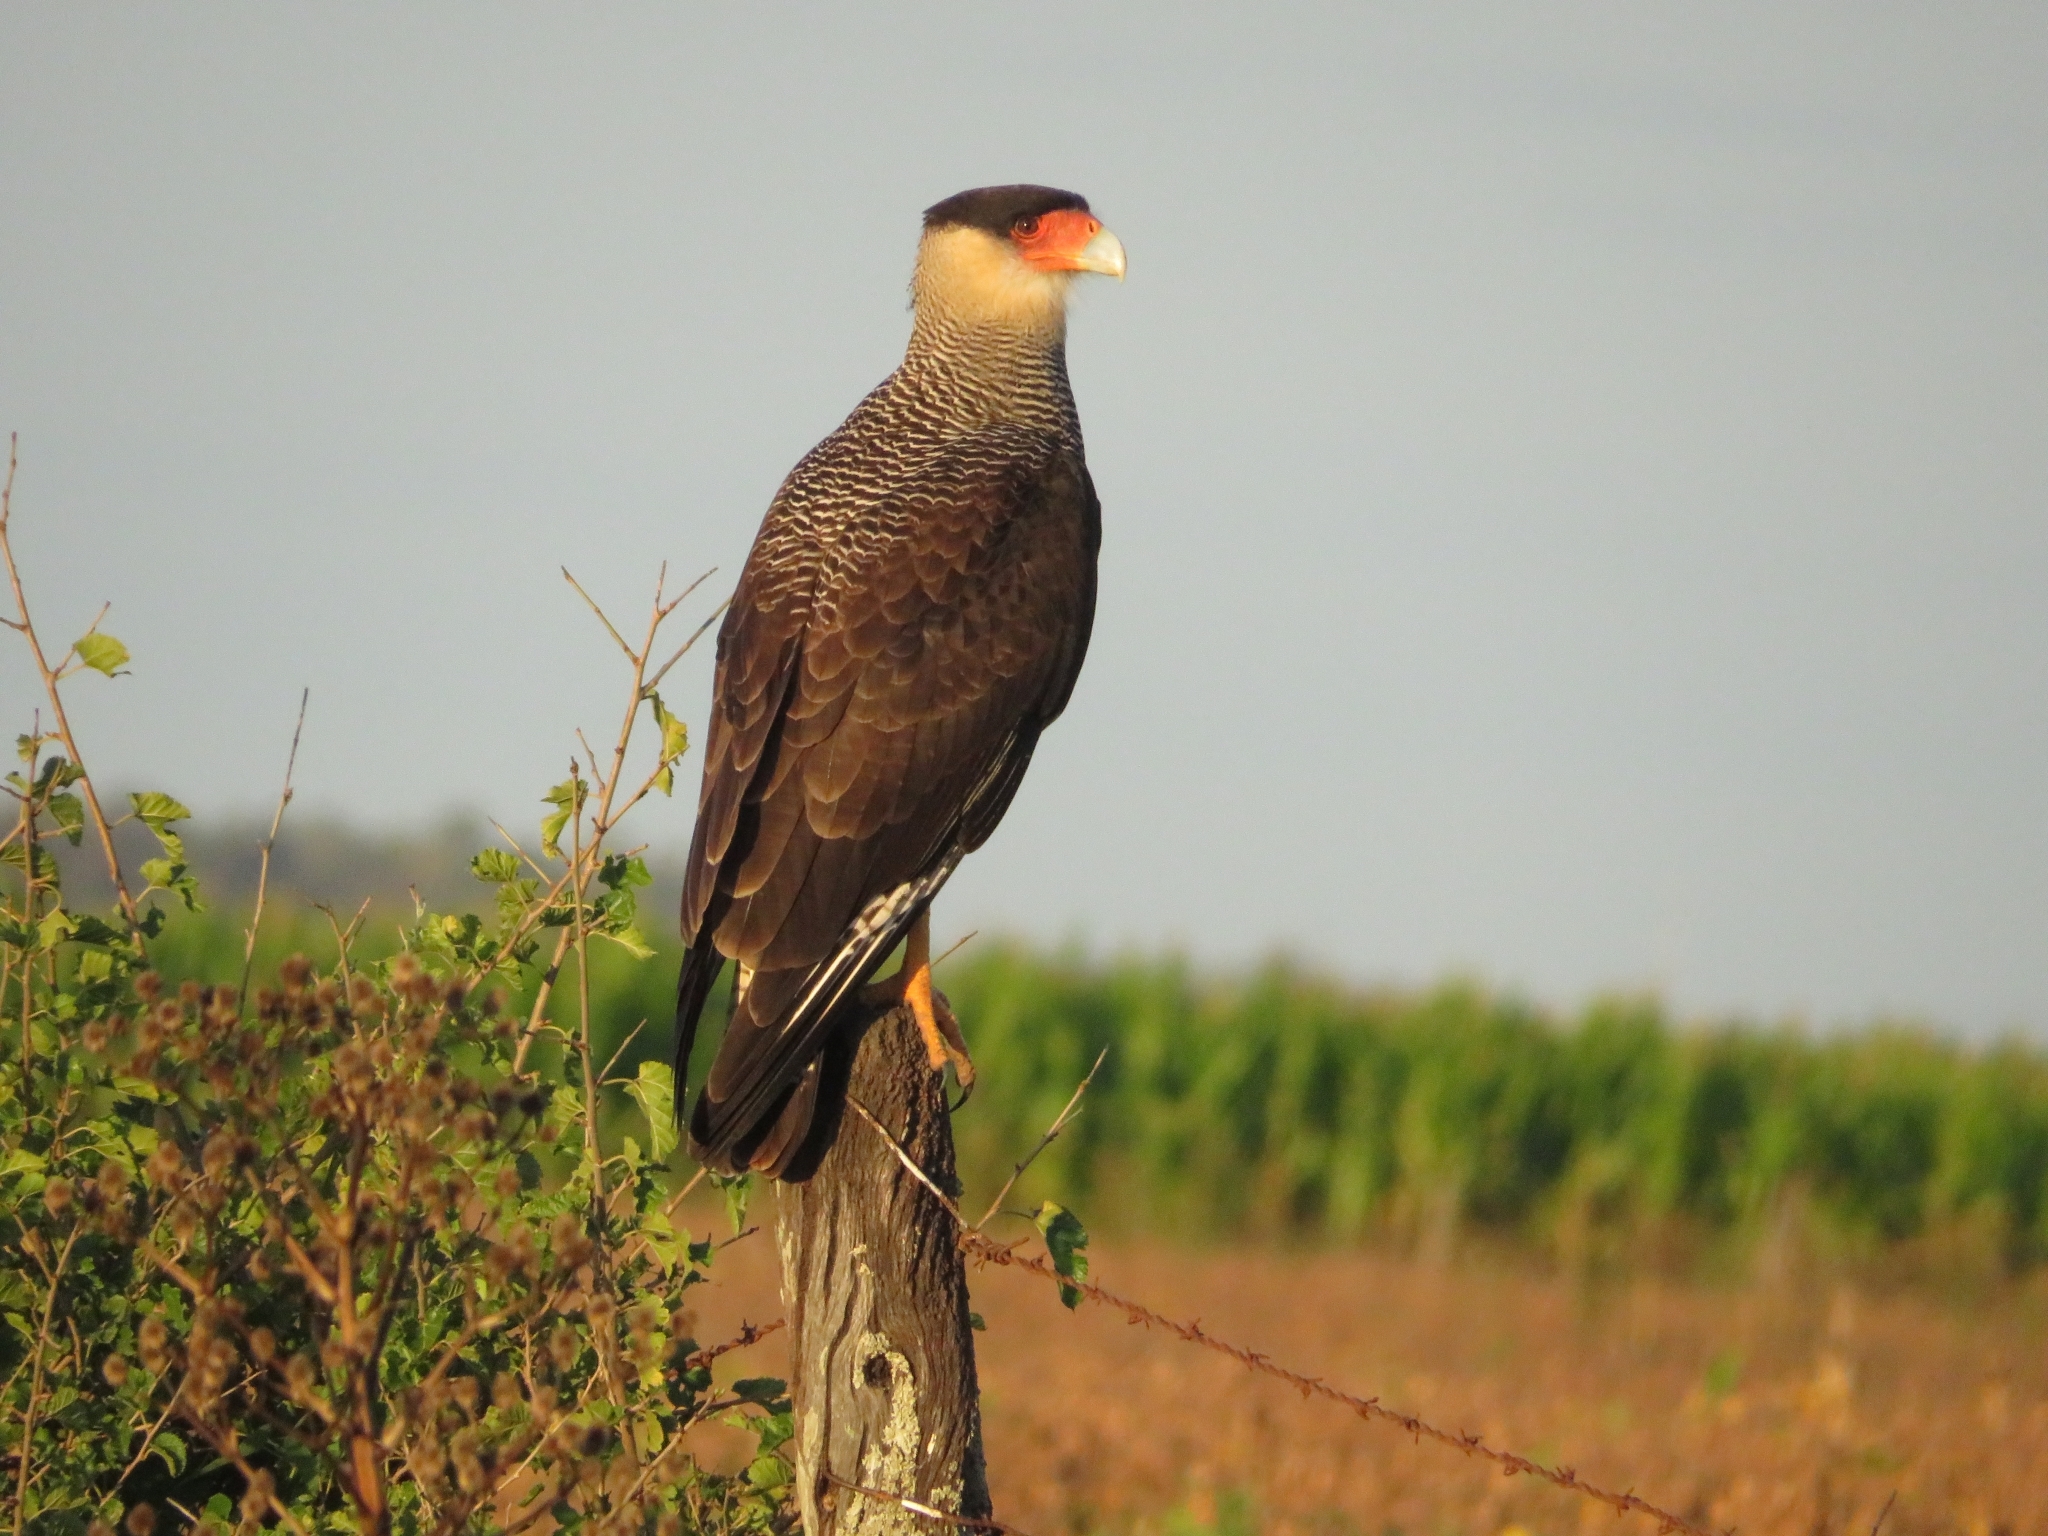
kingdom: Animalia
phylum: Chordata
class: Aves
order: Falconiformes
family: Falconidae
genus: Caracara
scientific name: Caracara plancus
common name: Southern caracara
